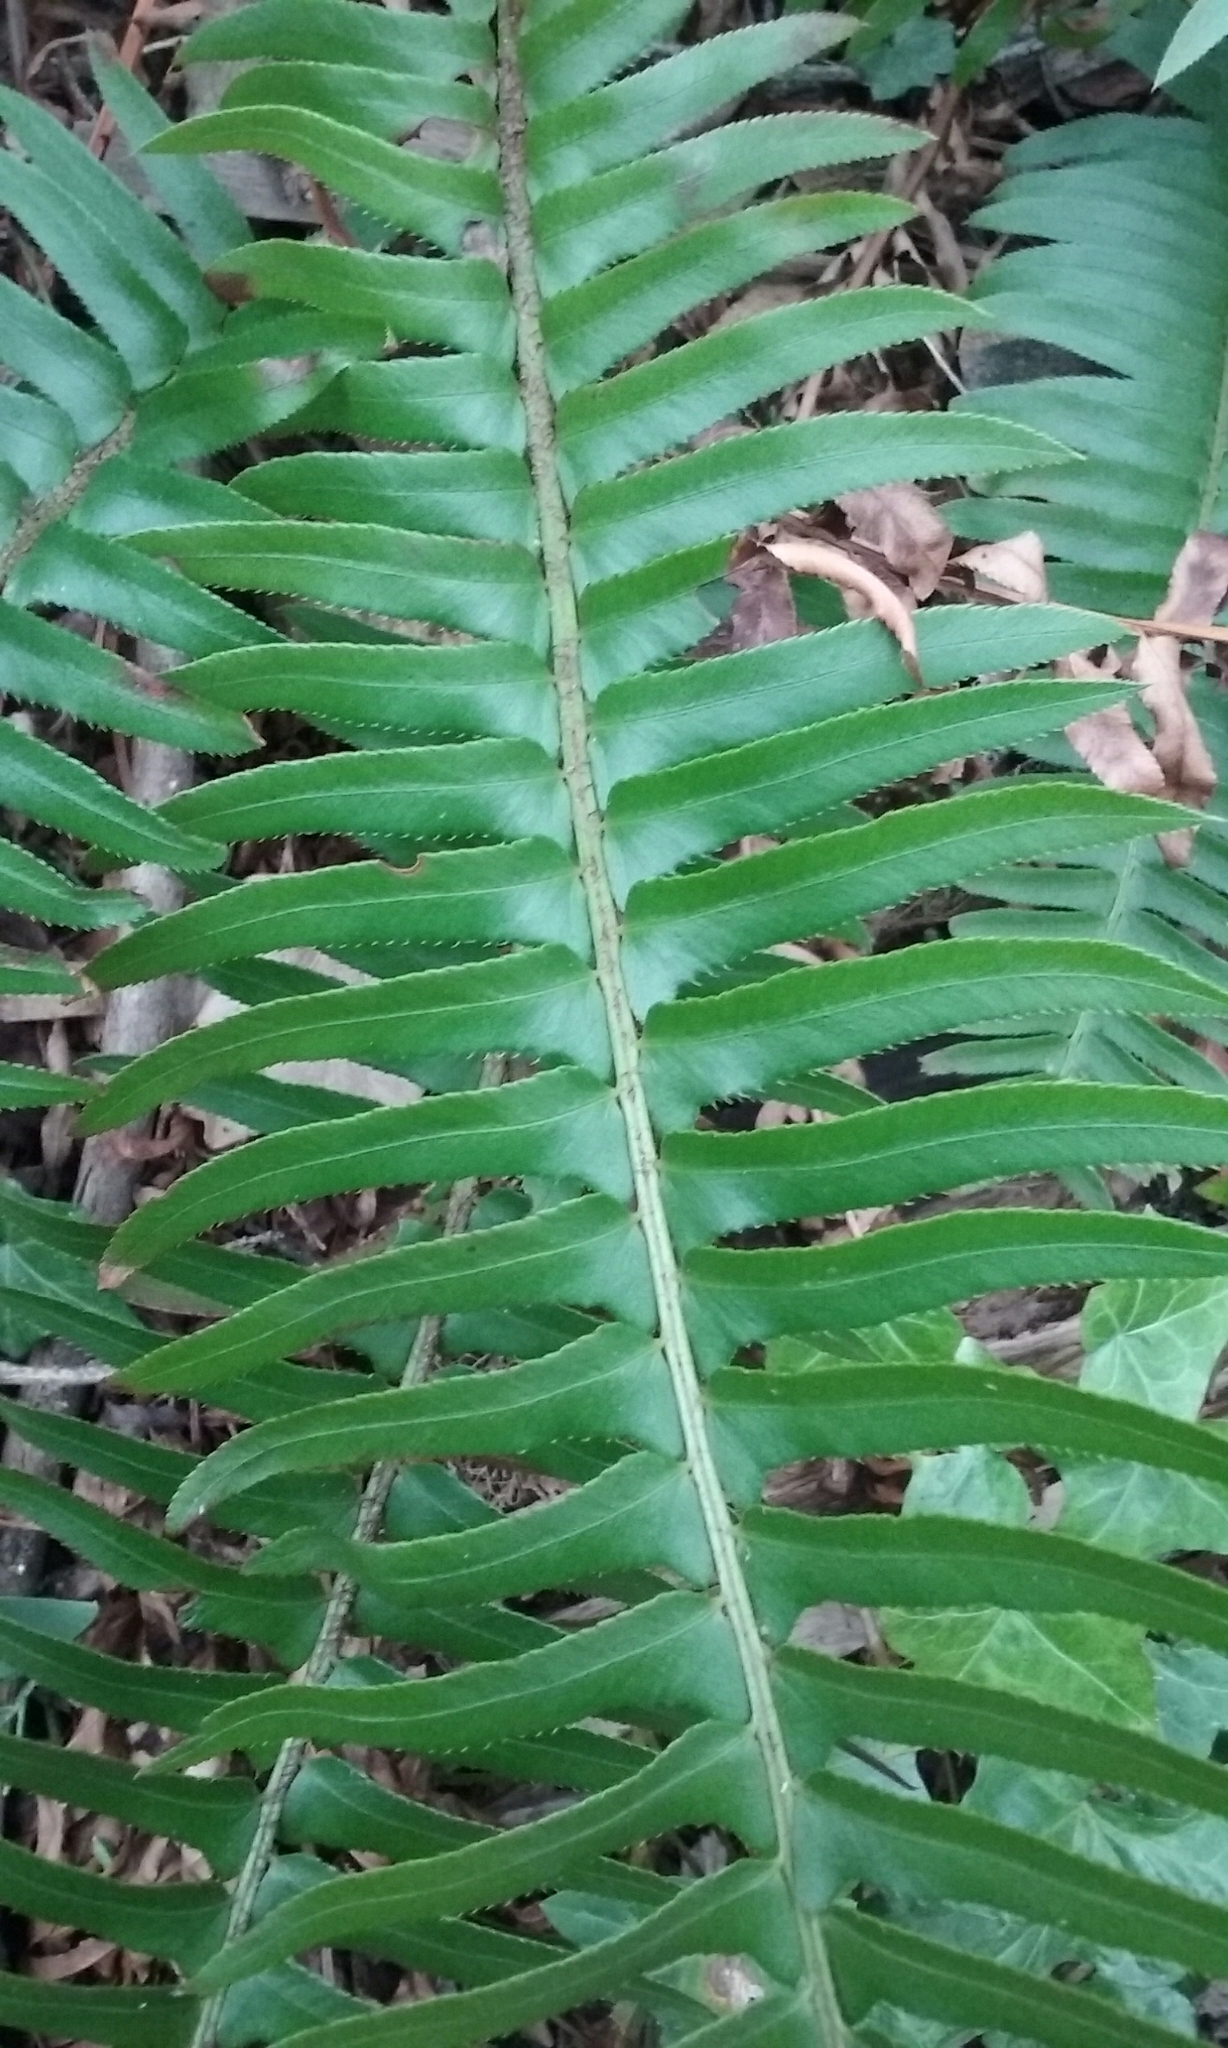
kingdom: Plantae
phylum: Tracheophyta
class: Polypodiopsida
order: Polypodiales
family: Dryopteridaceae
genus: Polystichum
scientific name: Polystichum munitum
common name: Western sword-fern
